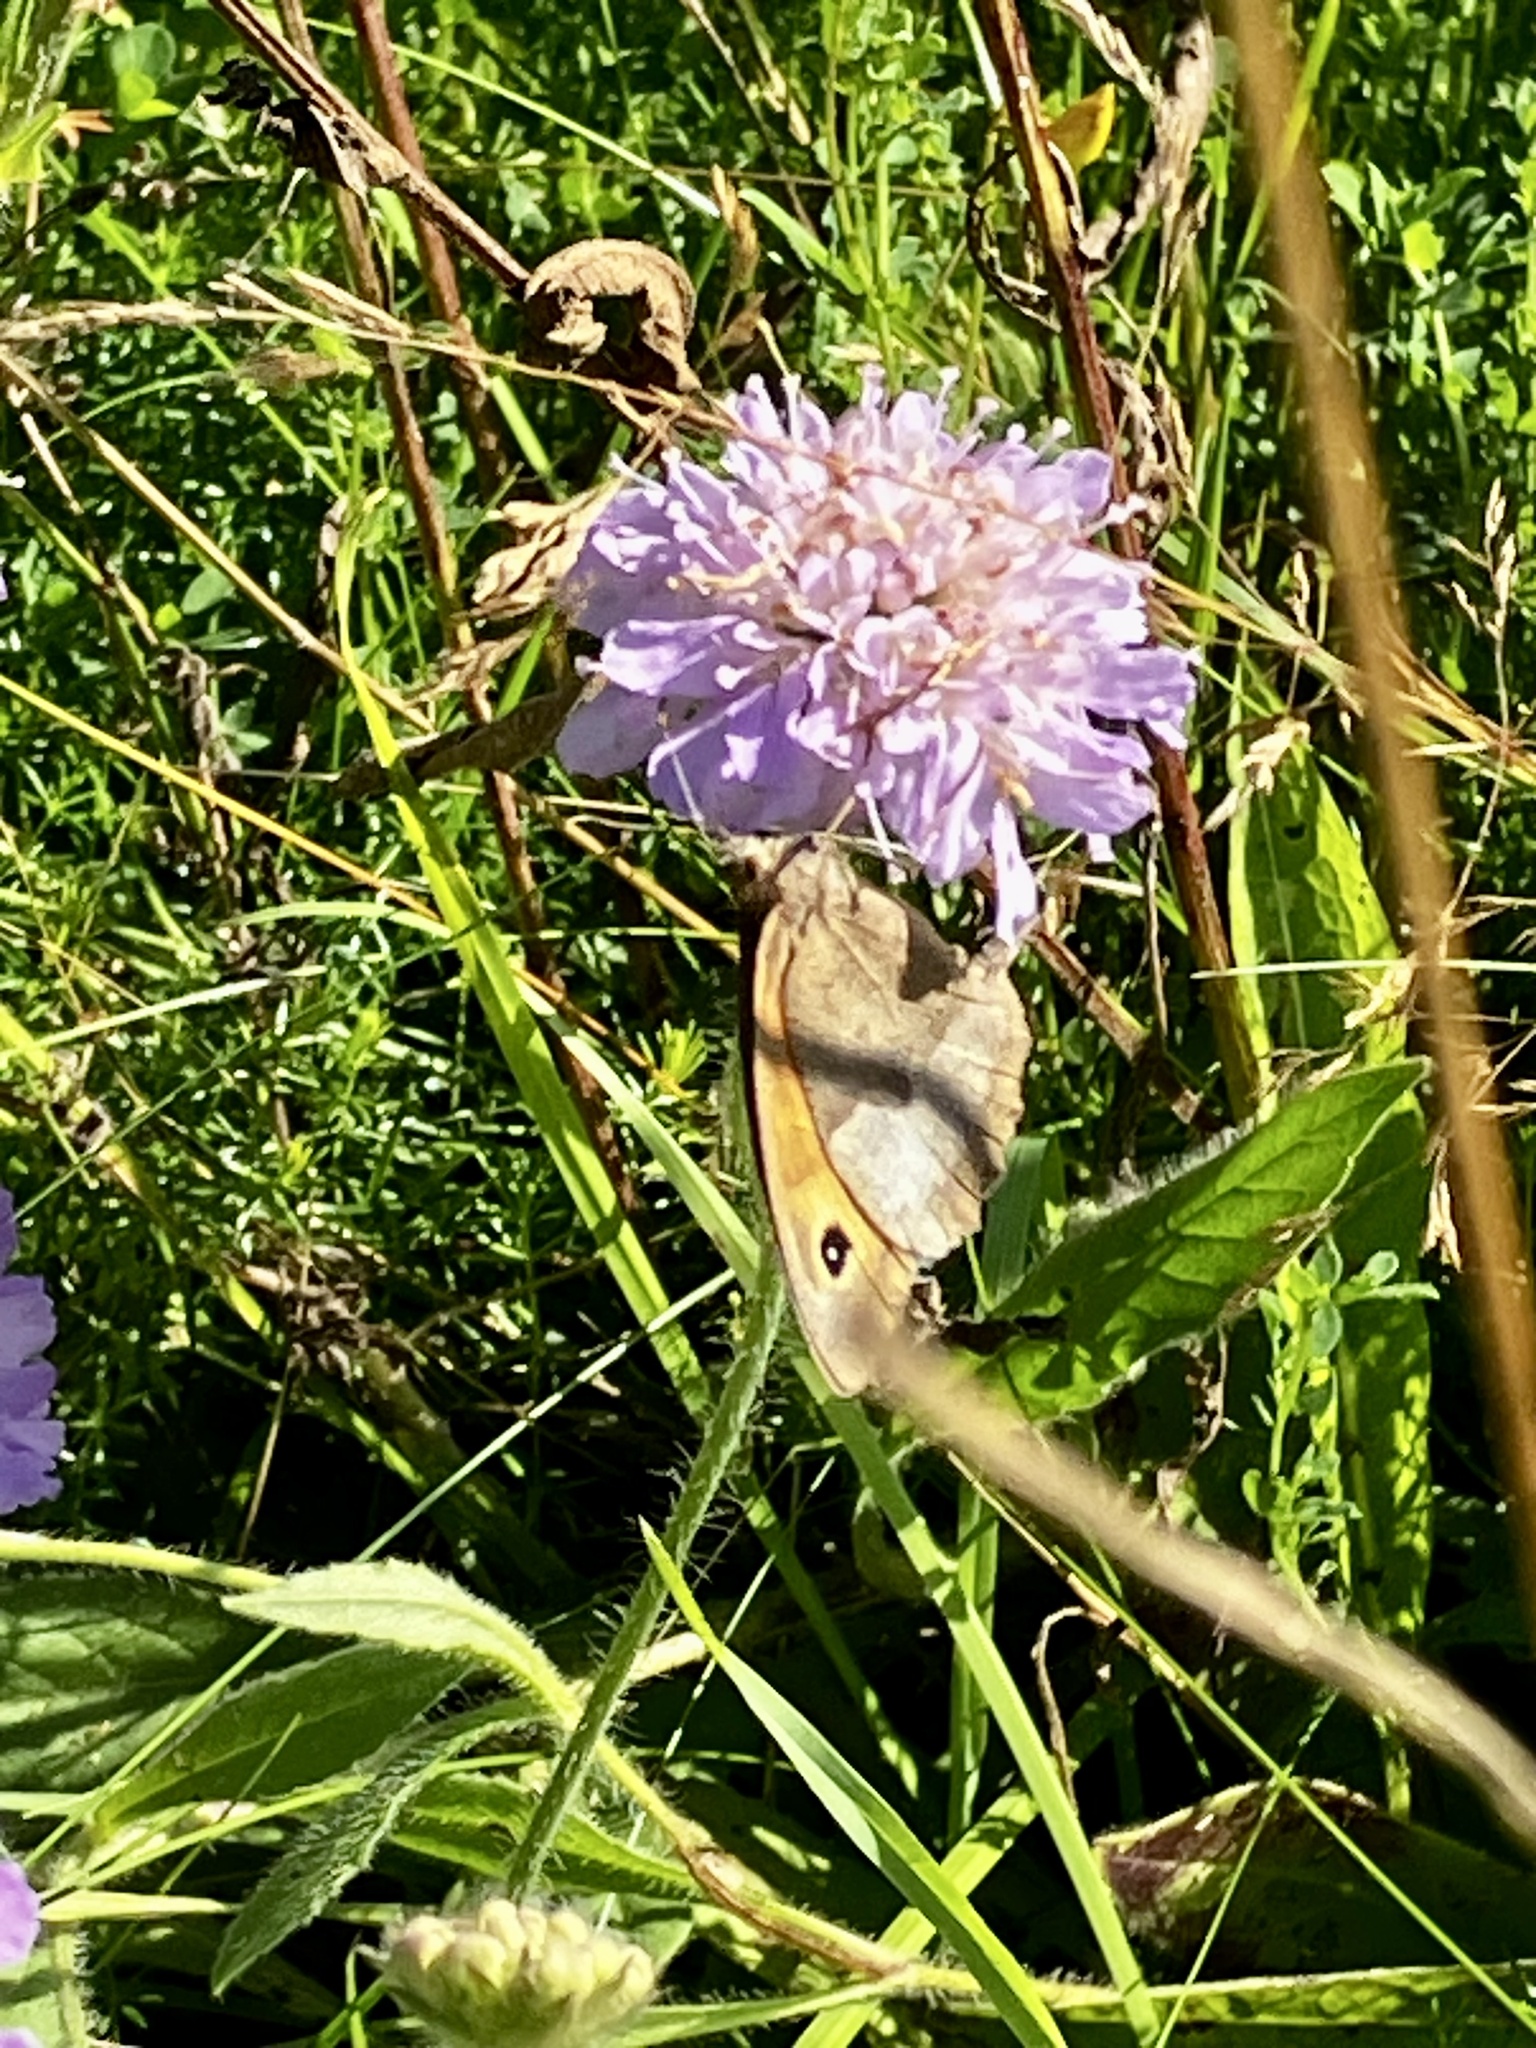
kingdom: Animalia
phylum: Arthropoda
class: Insecta
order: Lepidoptera
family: Nymphalidae
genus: Maniola
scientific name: Maniola jurtina
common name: Meadow brown
